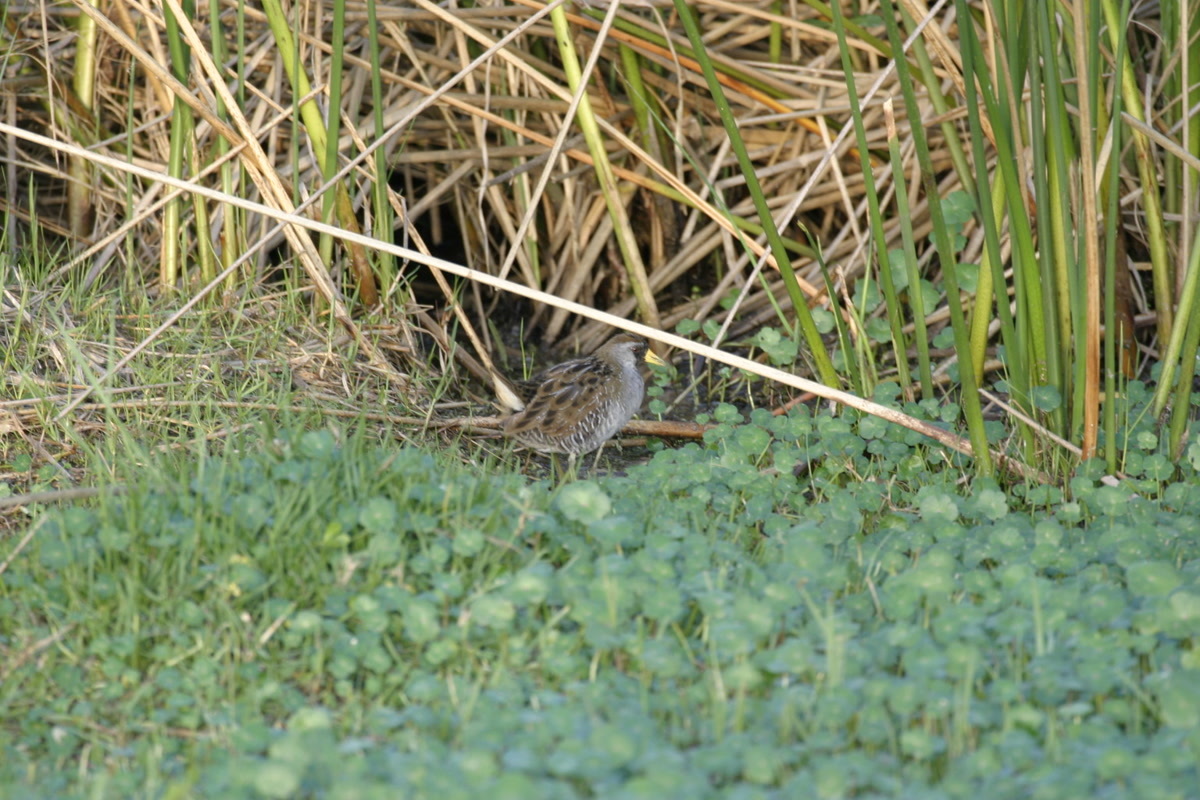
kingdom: Animalia
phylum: Chordata
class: Aves
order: Gruiformes
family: Rallidae
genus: Porzana
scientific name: Porzana carolina
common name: Sora
